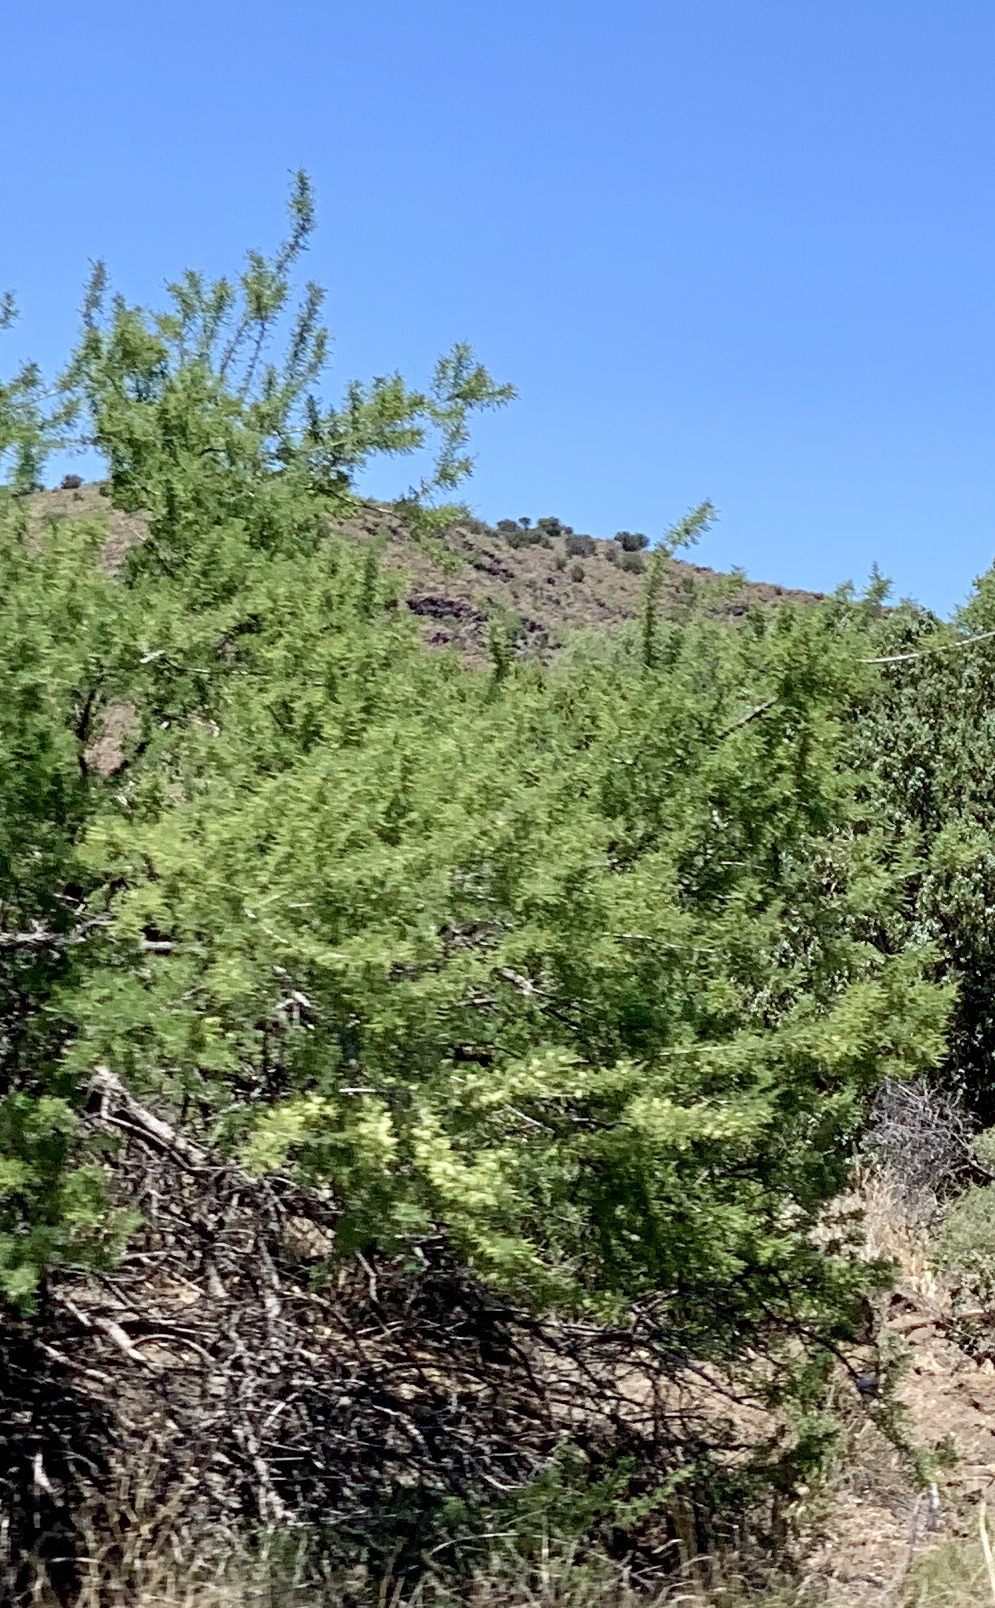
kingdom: Plantae
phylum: Tracheophyta
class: Magnoliopsida
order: Fabales
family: Fabaceae
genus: Senegalia
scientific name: Senegalia greggii
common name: Texas-mimosa
